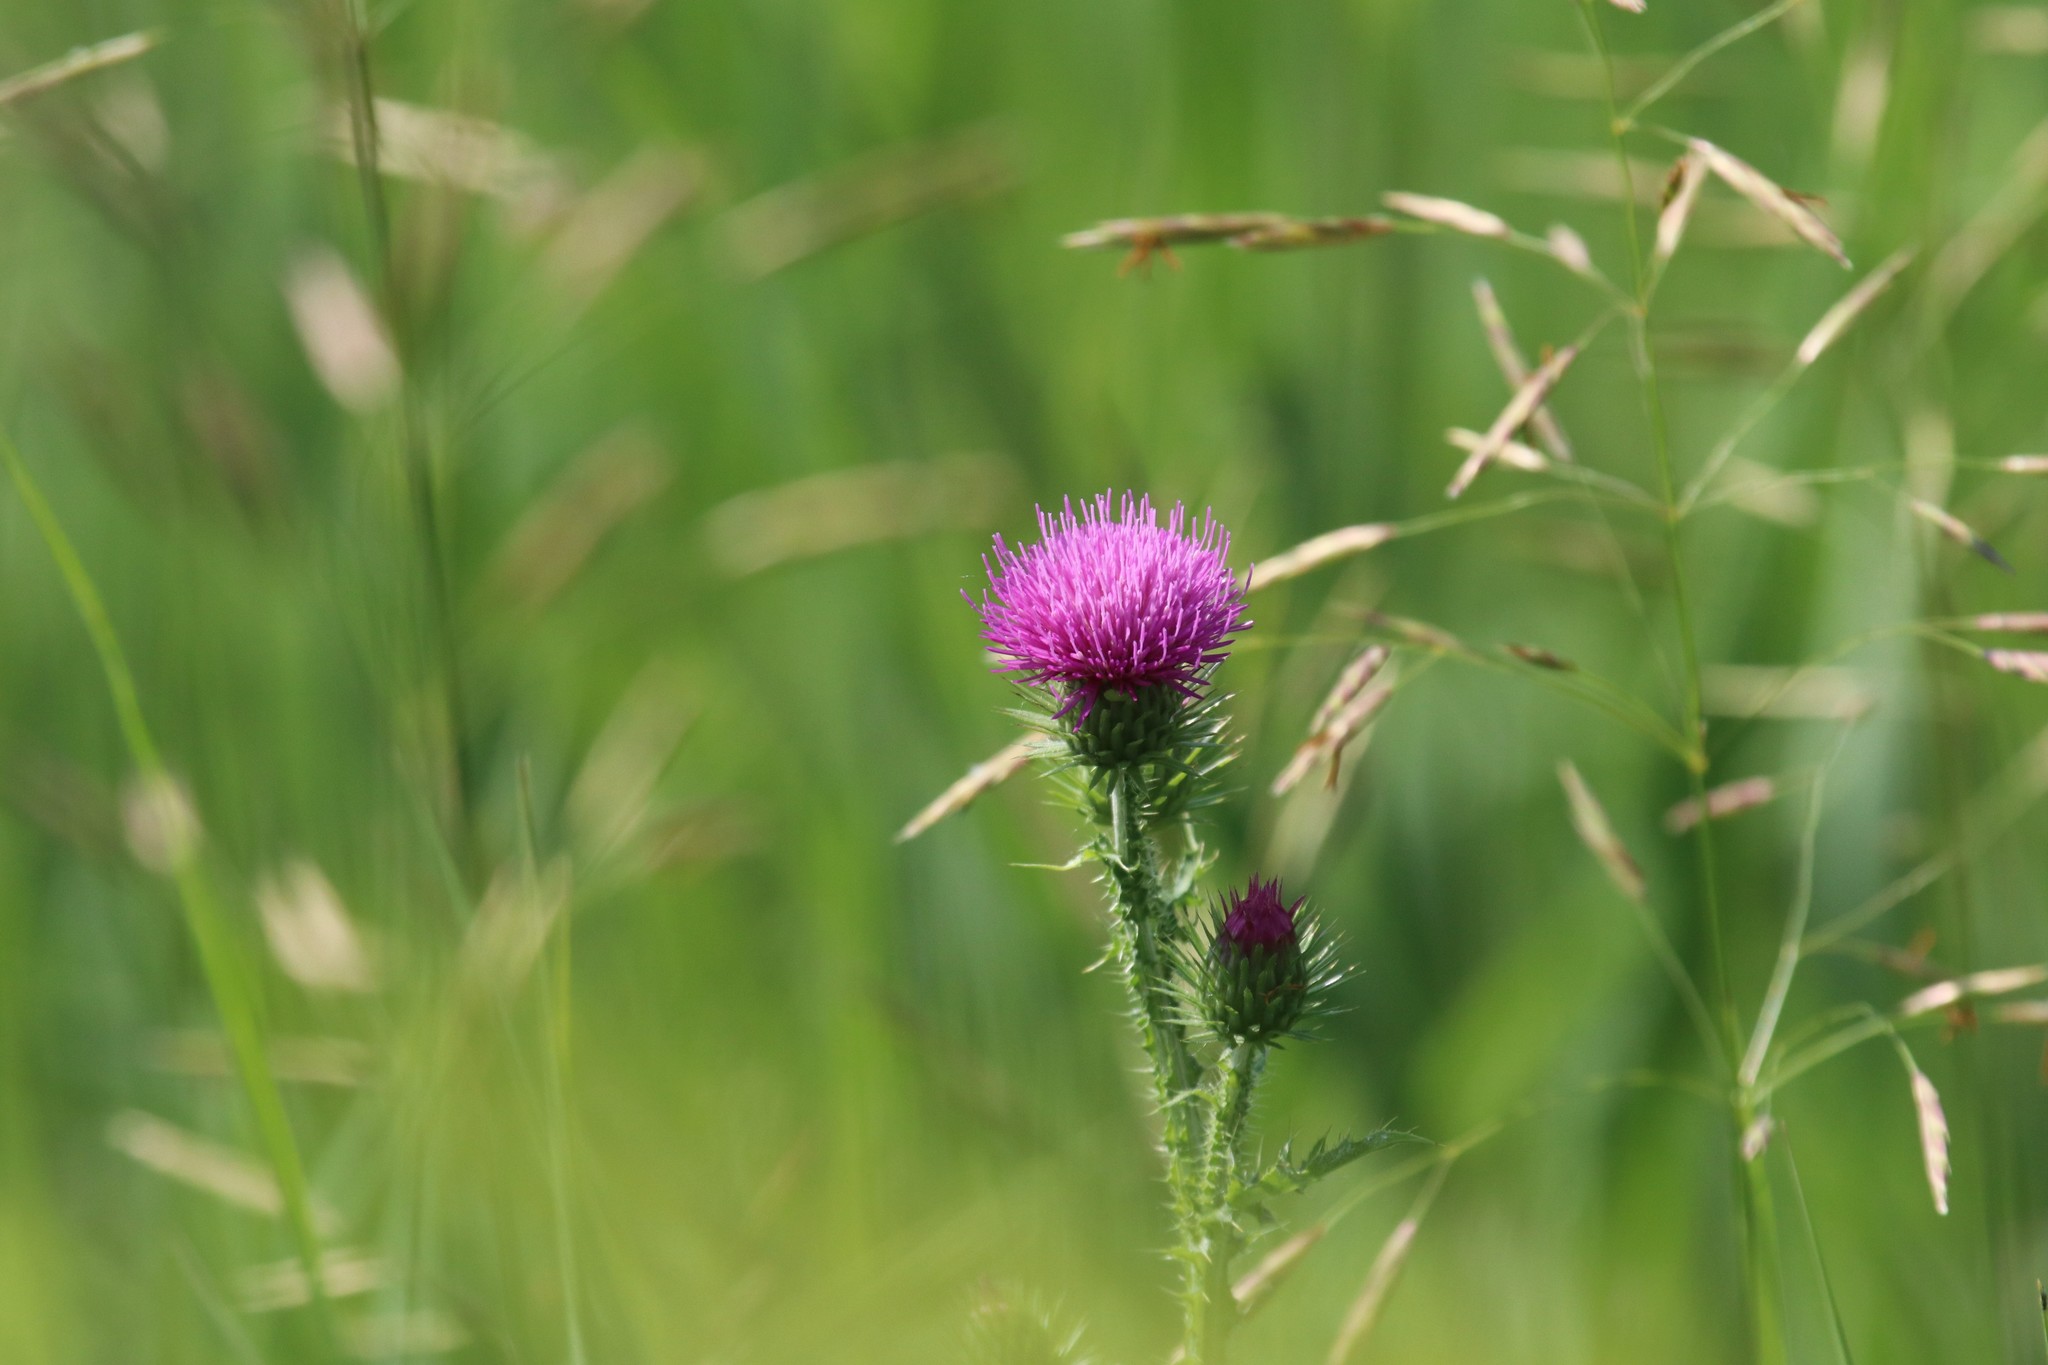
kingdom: Plantae
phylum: Tracheophyta
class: Magnoliopsida
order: Asterales
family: Asteraceae
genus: Carduus
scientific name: Carduus acanthoides
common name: Plumeless thistle
